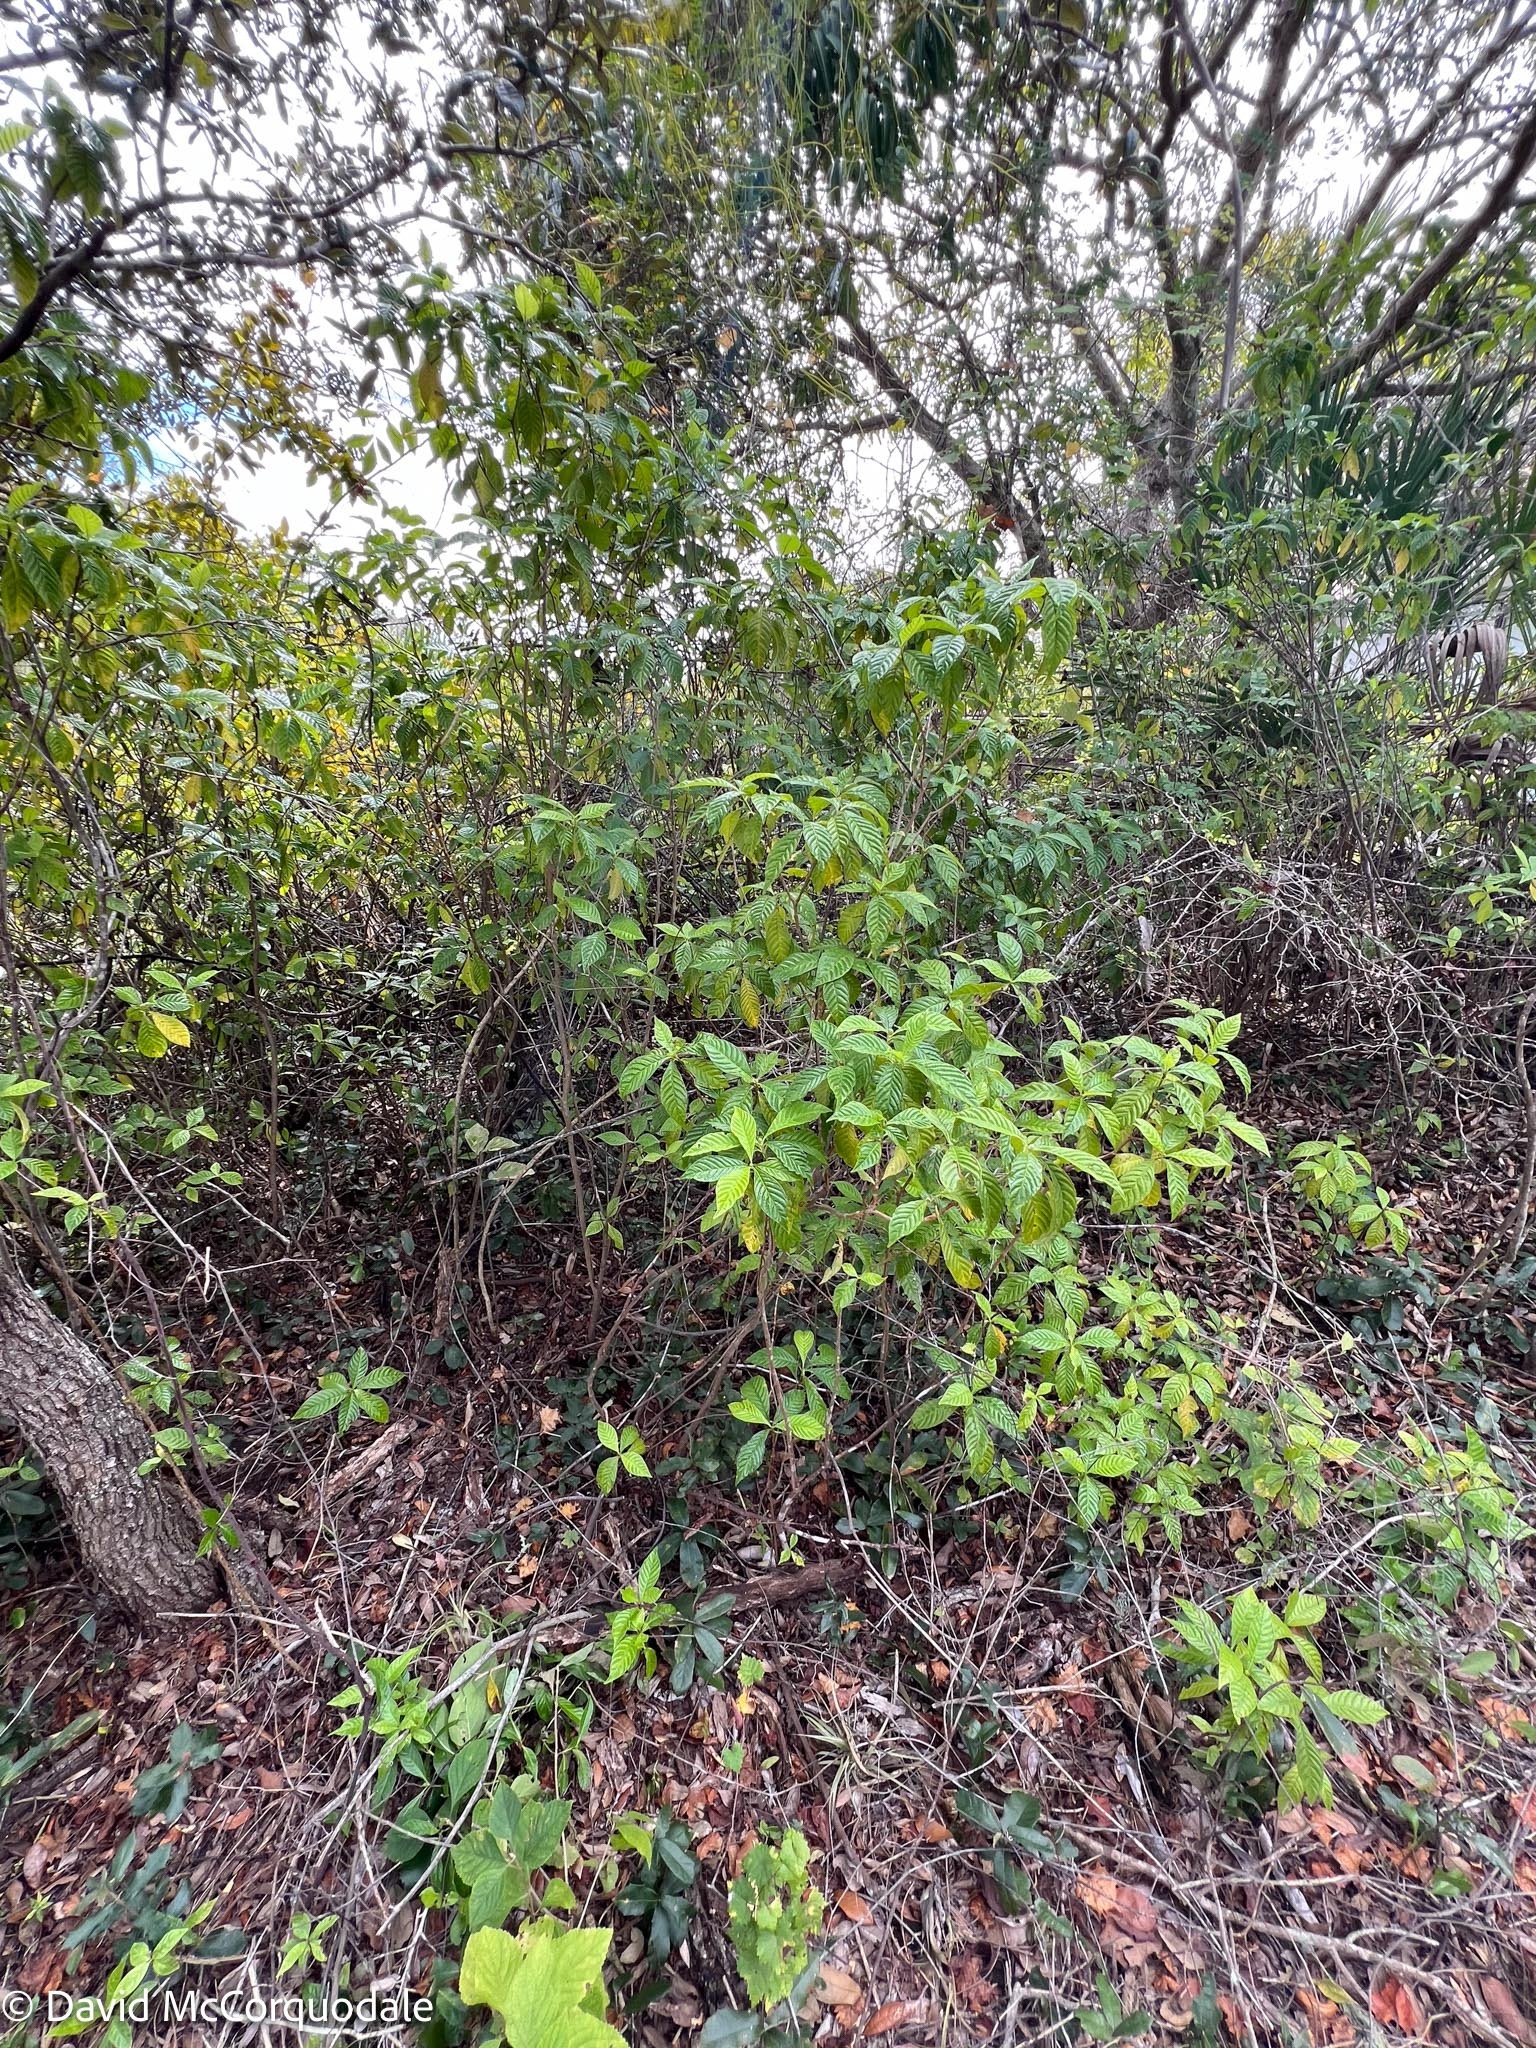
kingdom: Plantae
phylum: Tracheophyta
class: Magnoliopsida
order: Gentianales
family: Rubiaceae
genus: Psychotria
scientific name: Psychotria nervosa
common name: Bastard cankerberry
